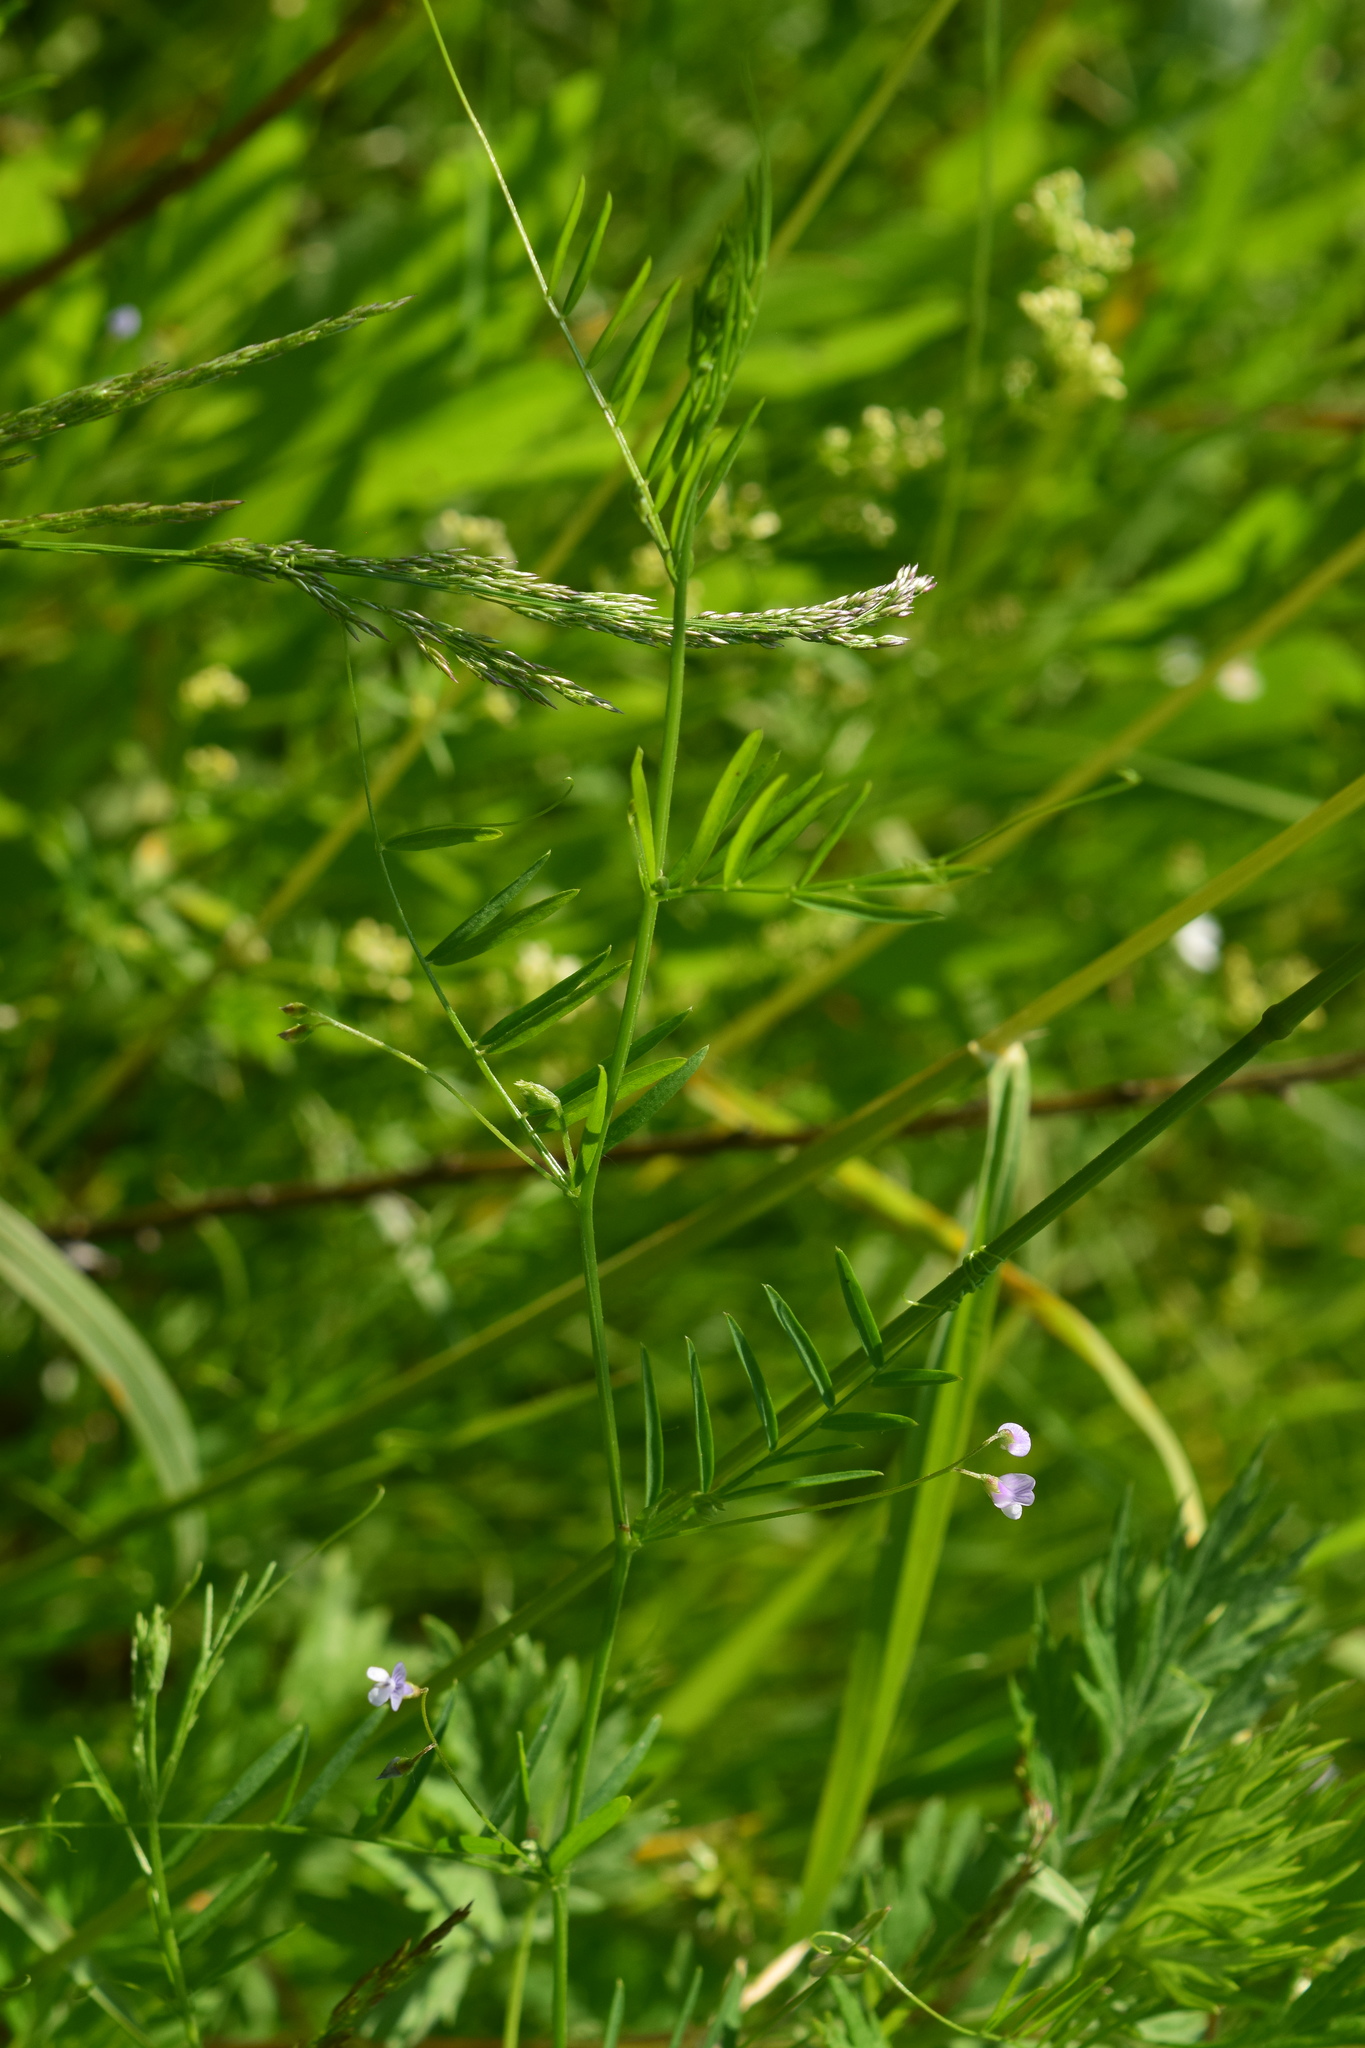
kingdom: Plantae
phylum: Tracheophyta
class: Magnoliopsida
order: Fabales
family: Fabaceae
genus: Vicia
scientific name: Vicia tetrasperma
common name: Smooth tare
